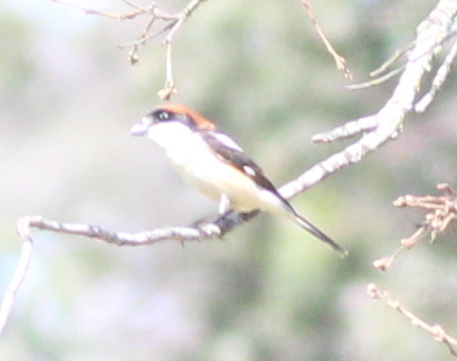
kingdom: Animalia
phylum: Chordata
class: Aves
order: Passeriformes
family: Laniidae
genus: Lanius
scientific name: Lanius senator
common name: Woodchat shrike
